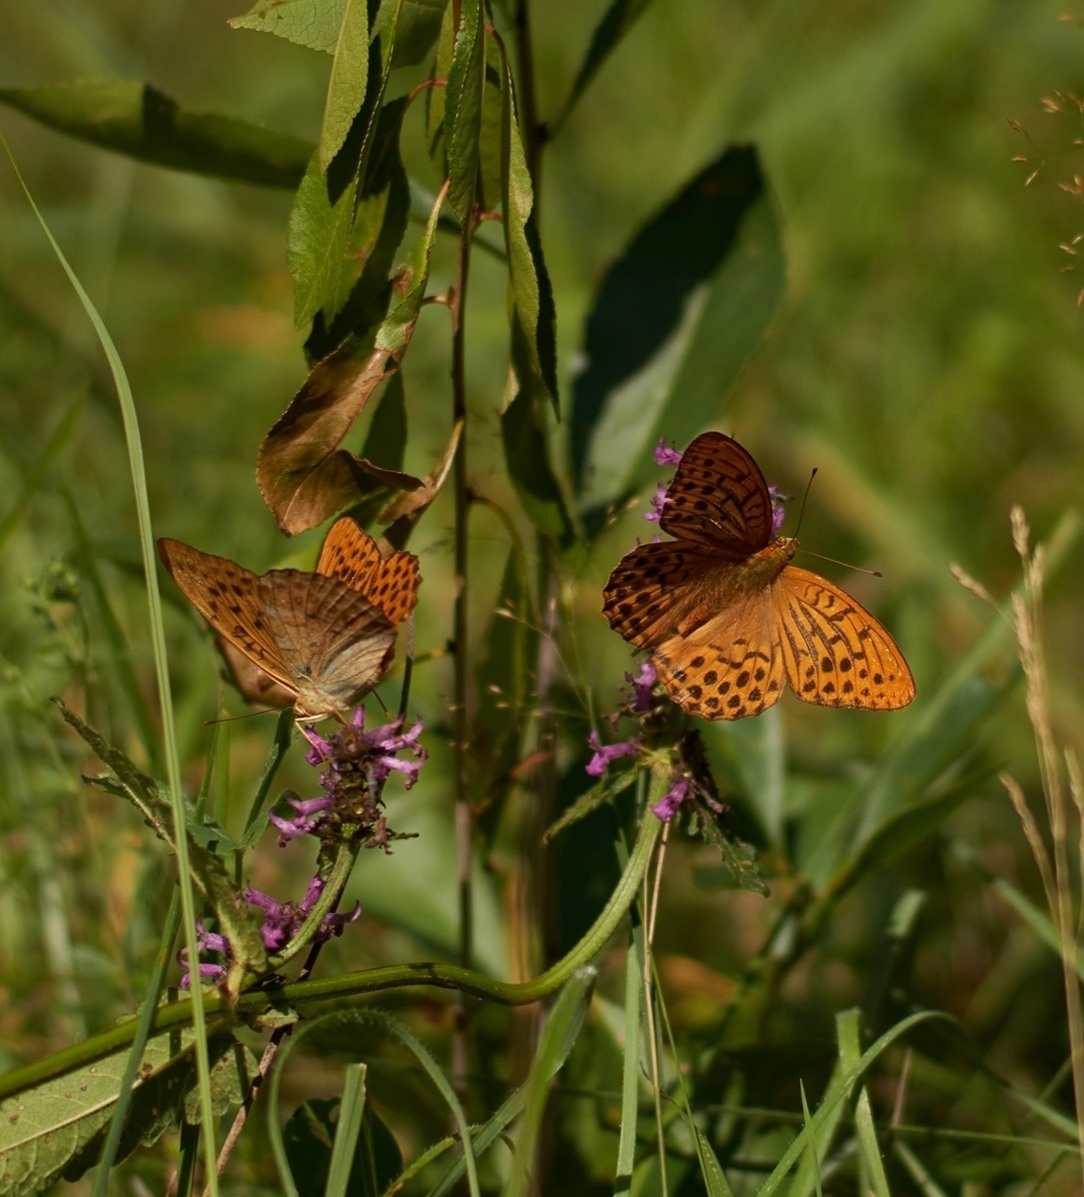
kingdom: Animalia
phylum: Arthropoda
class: Insecta
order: Lepidoptera
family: Nymphalidae
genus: Argynnis
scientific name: Argynnis paphia
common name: Silver-washed fritillary
